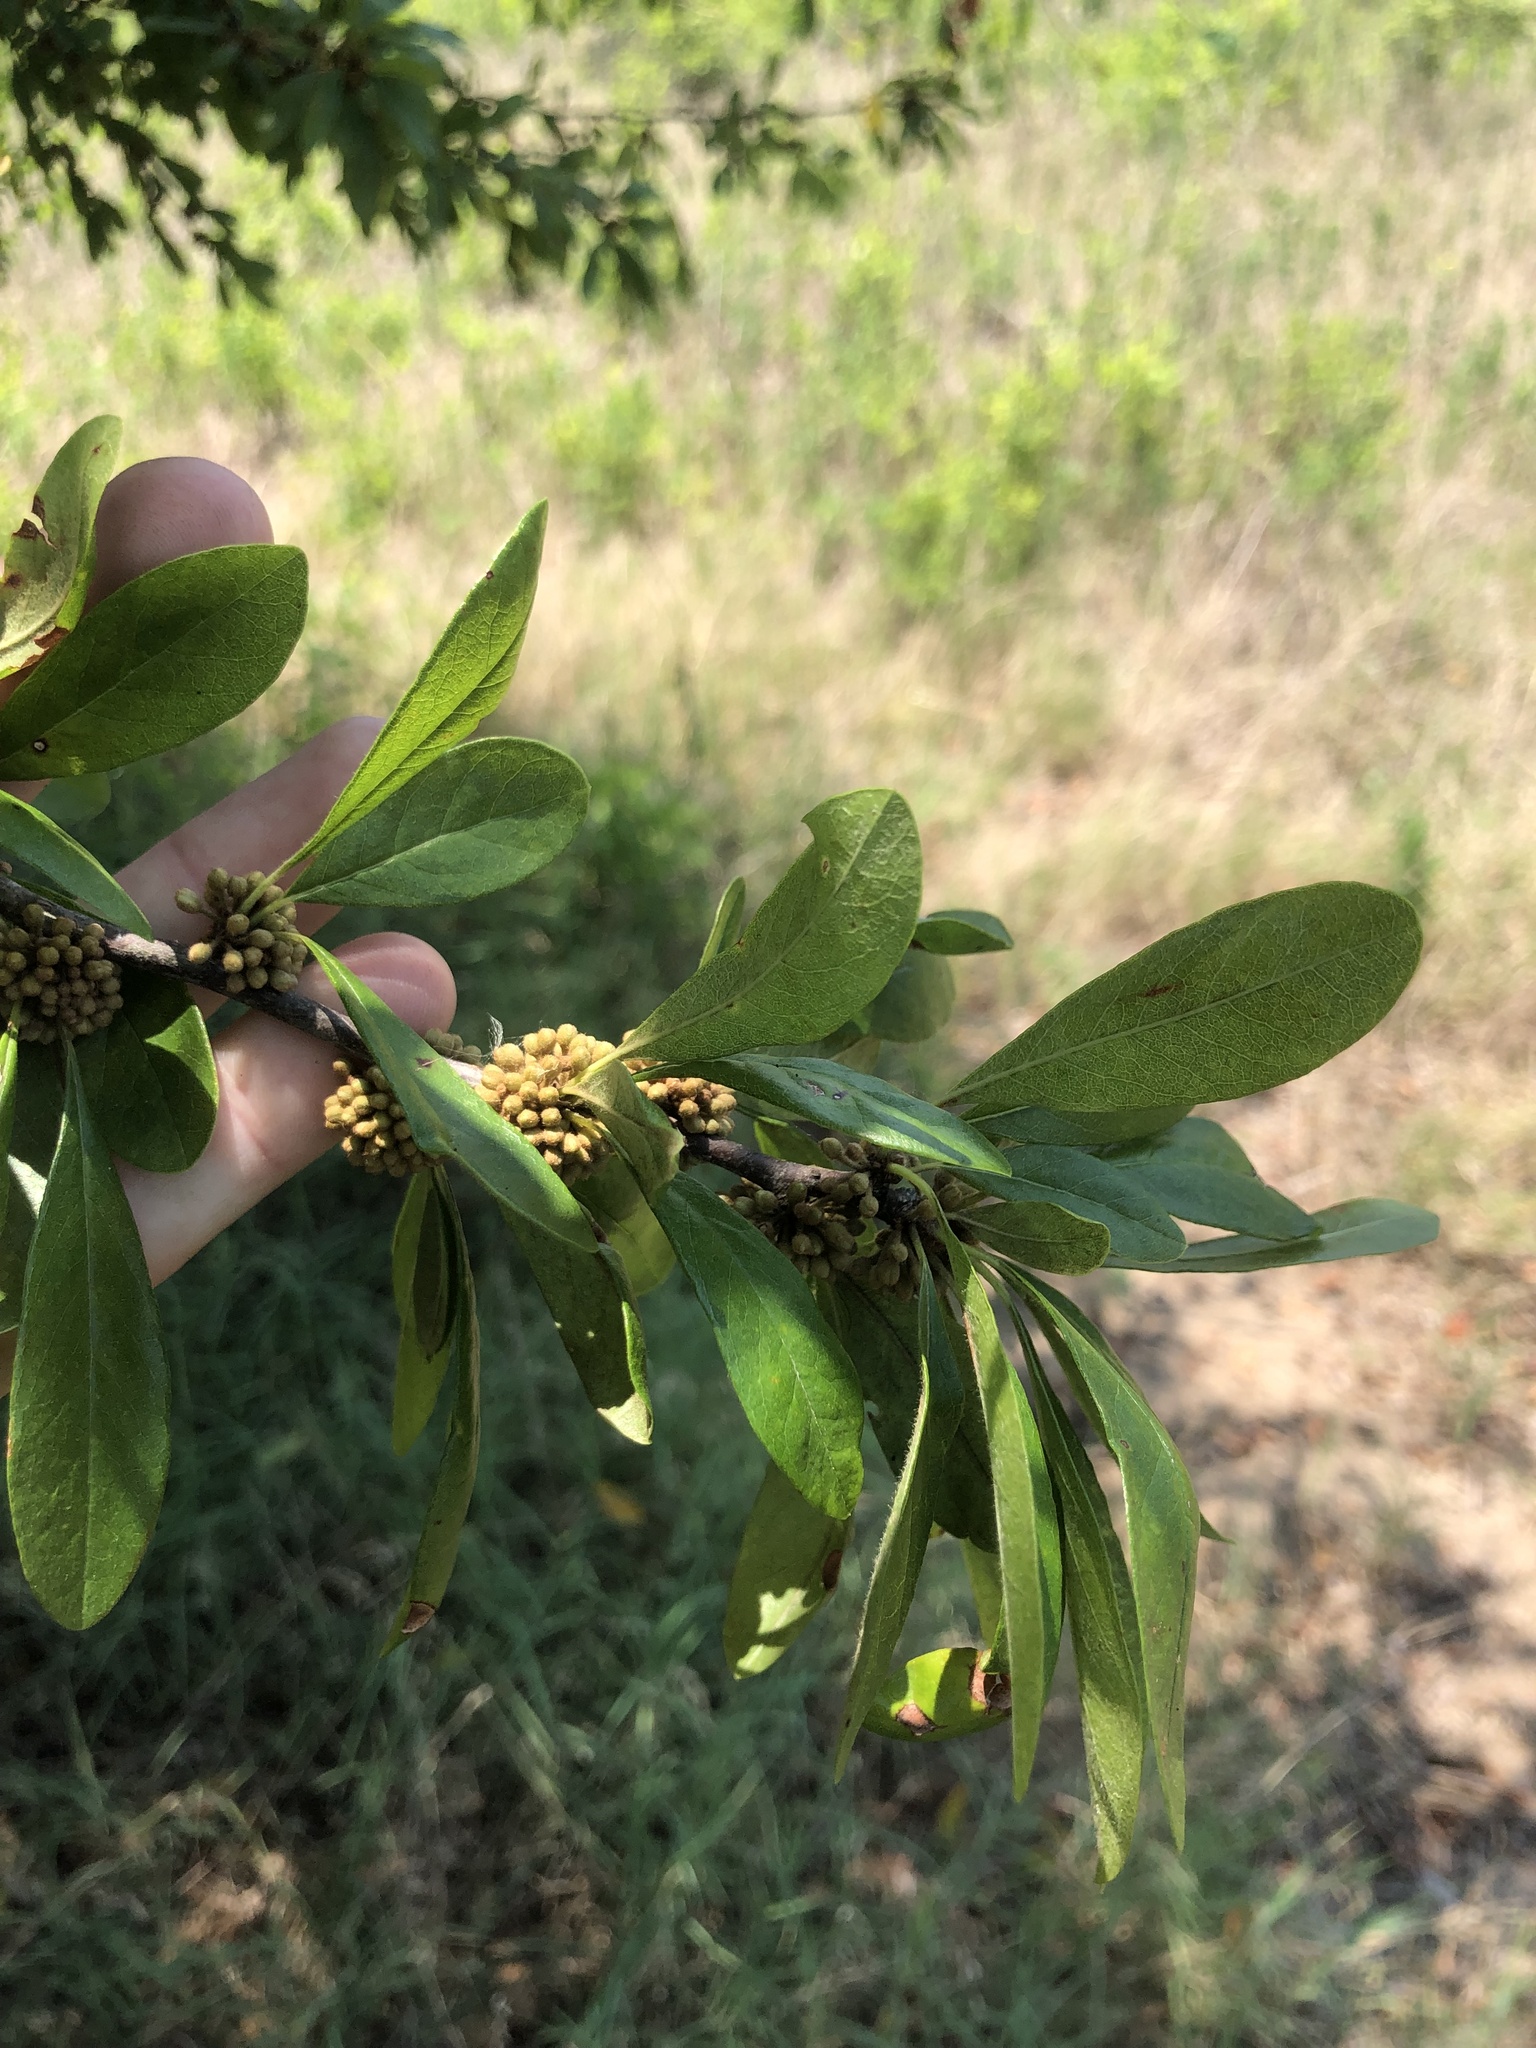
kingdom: Plantae
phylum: Tracheophyta
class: Magnoliopsida
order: Ericales
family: Sapotaceae
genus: Sideroxylon
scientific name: Sideroxylon lanuginosum
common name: Chittamwood
